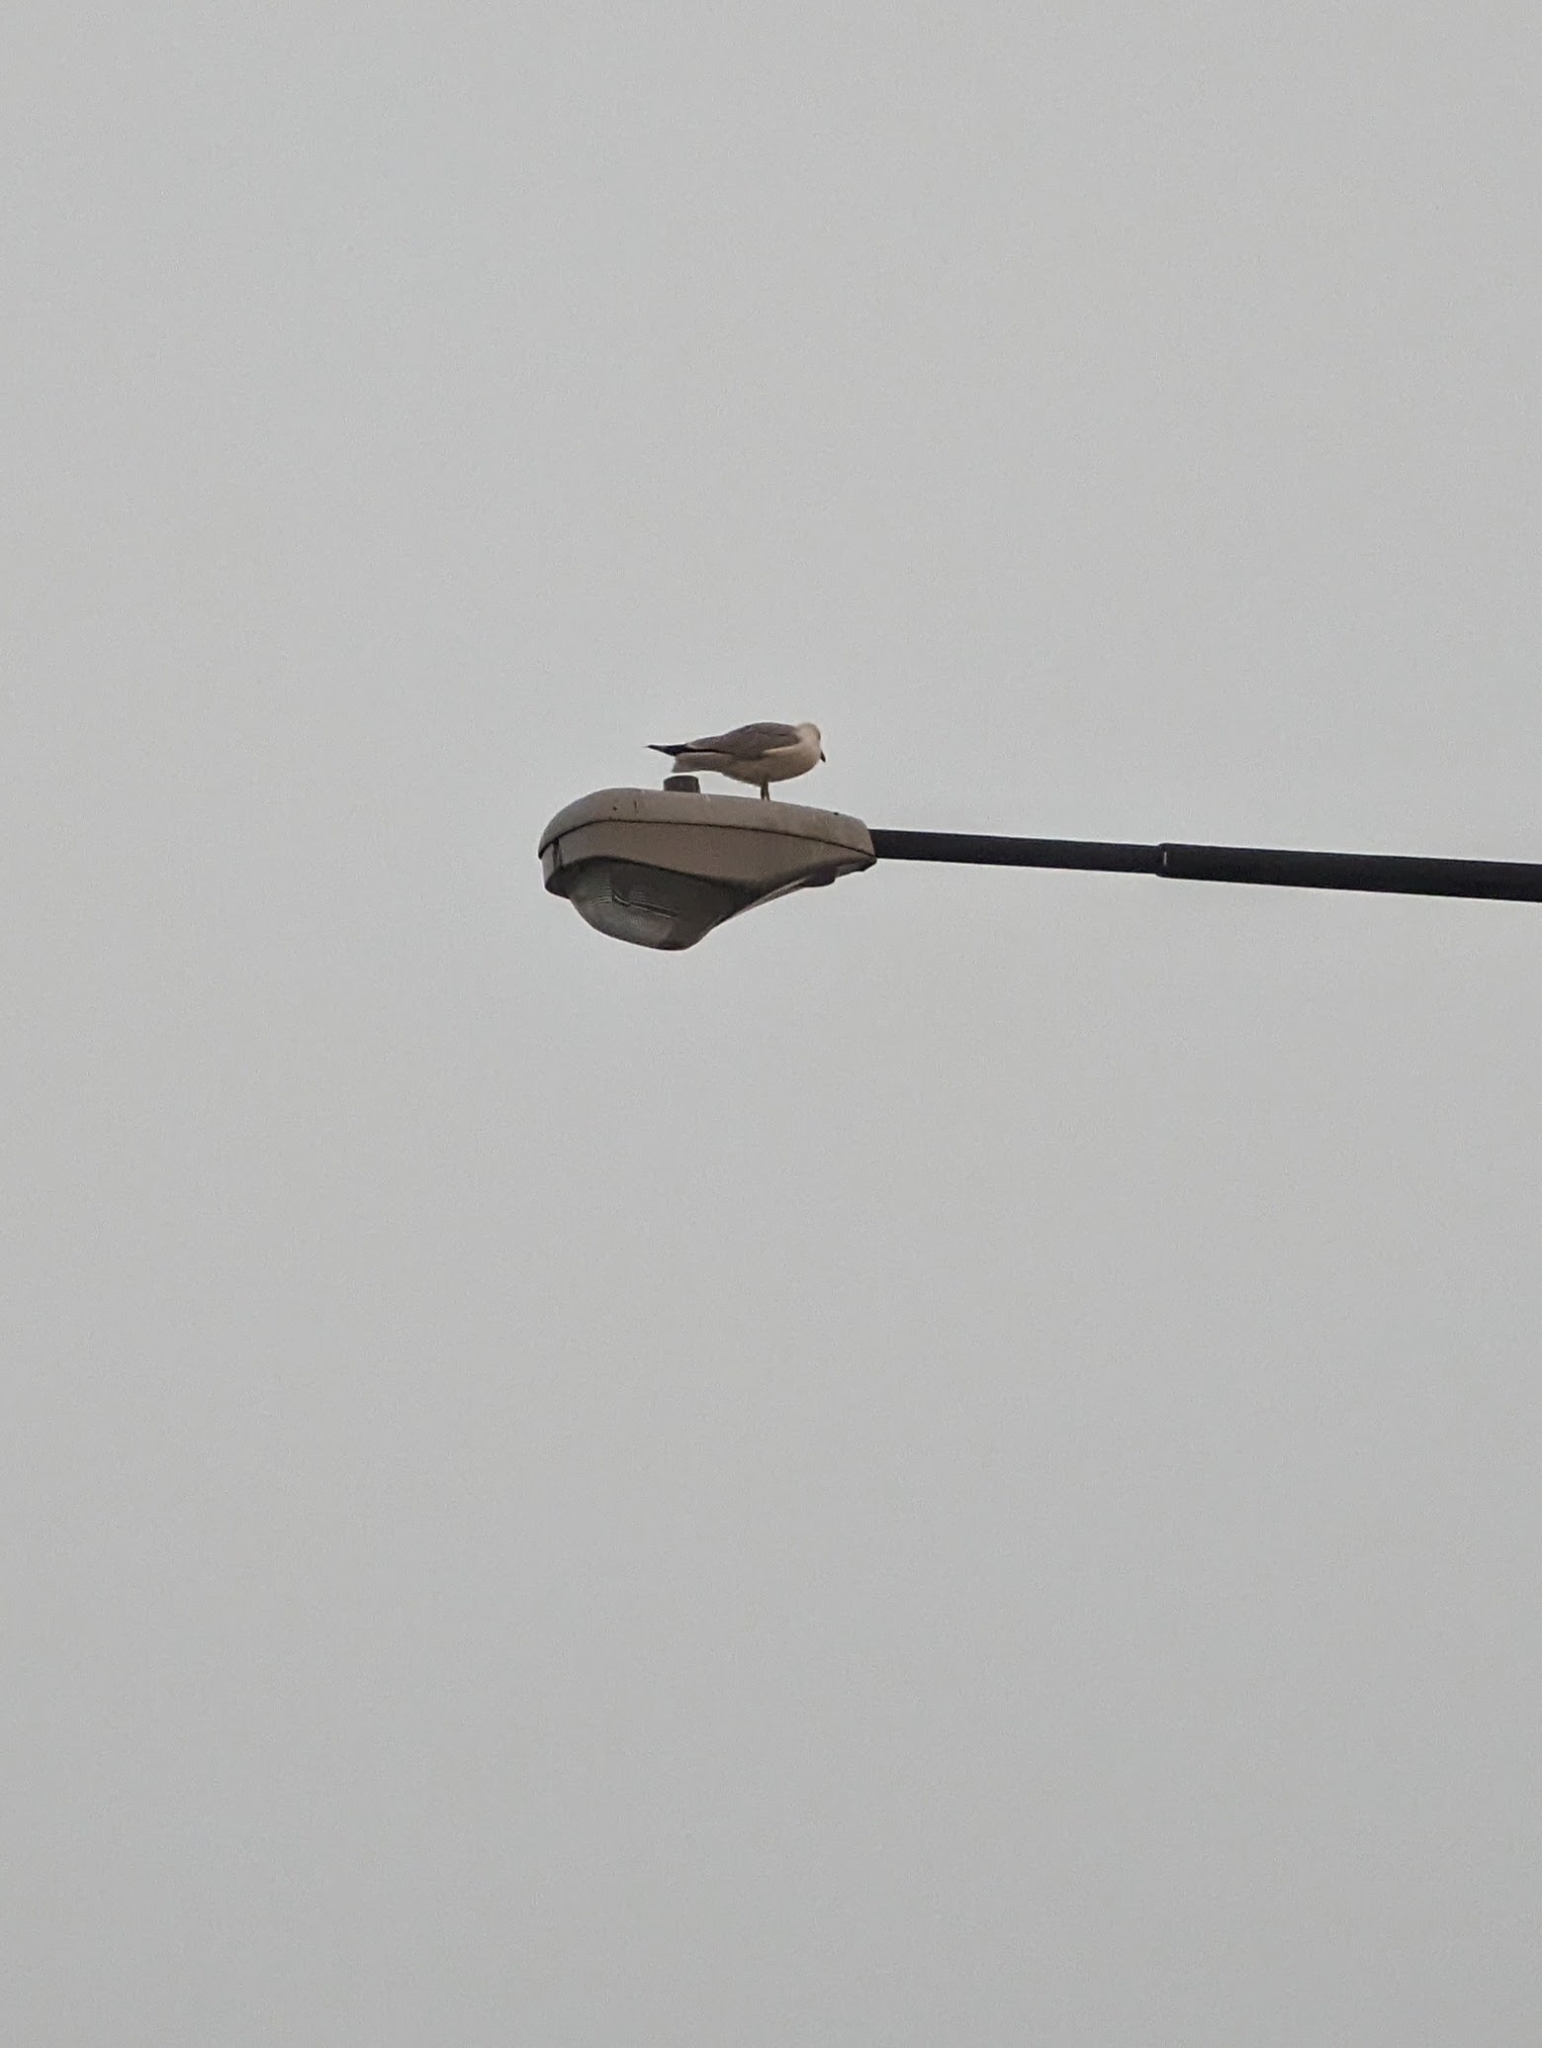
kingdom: Animalia
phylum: Chordata
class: Aves
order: Charadriiformes
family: Laridae
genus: Larus
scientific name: Larus delawarensis
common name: Ring-billed gull
